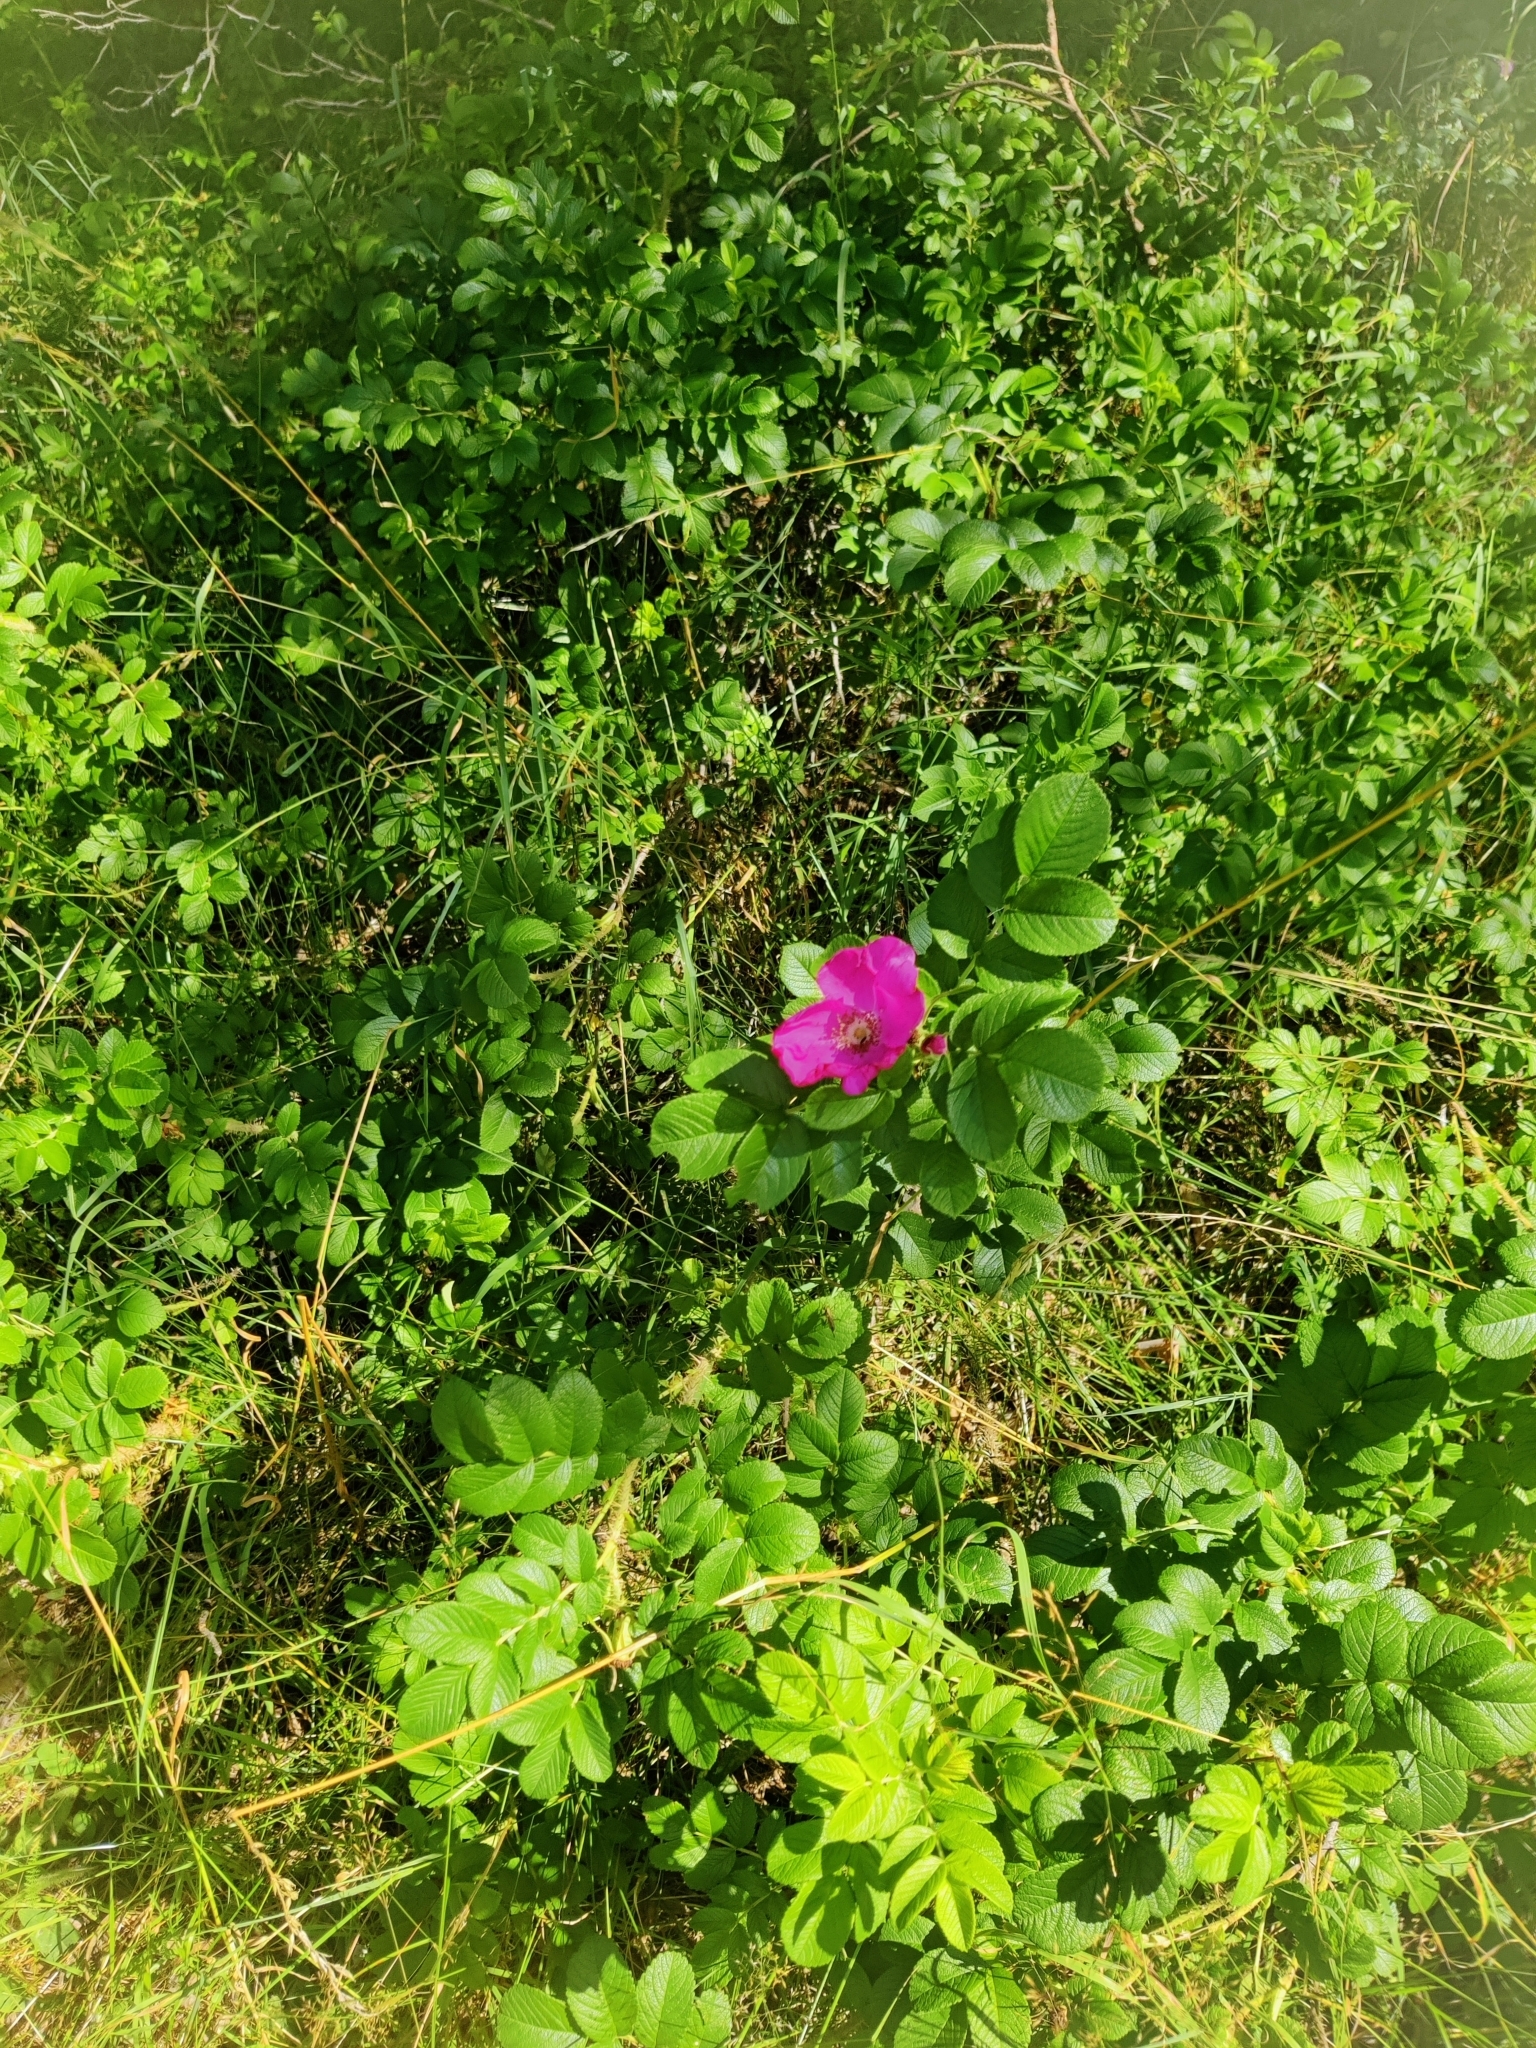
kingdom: Plantae
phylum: Tracheophyta
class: Magnoliopsida
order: Rosales
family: Rosaceae
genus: Rosa
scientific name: Rosa rugosa
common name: Japanese rose
